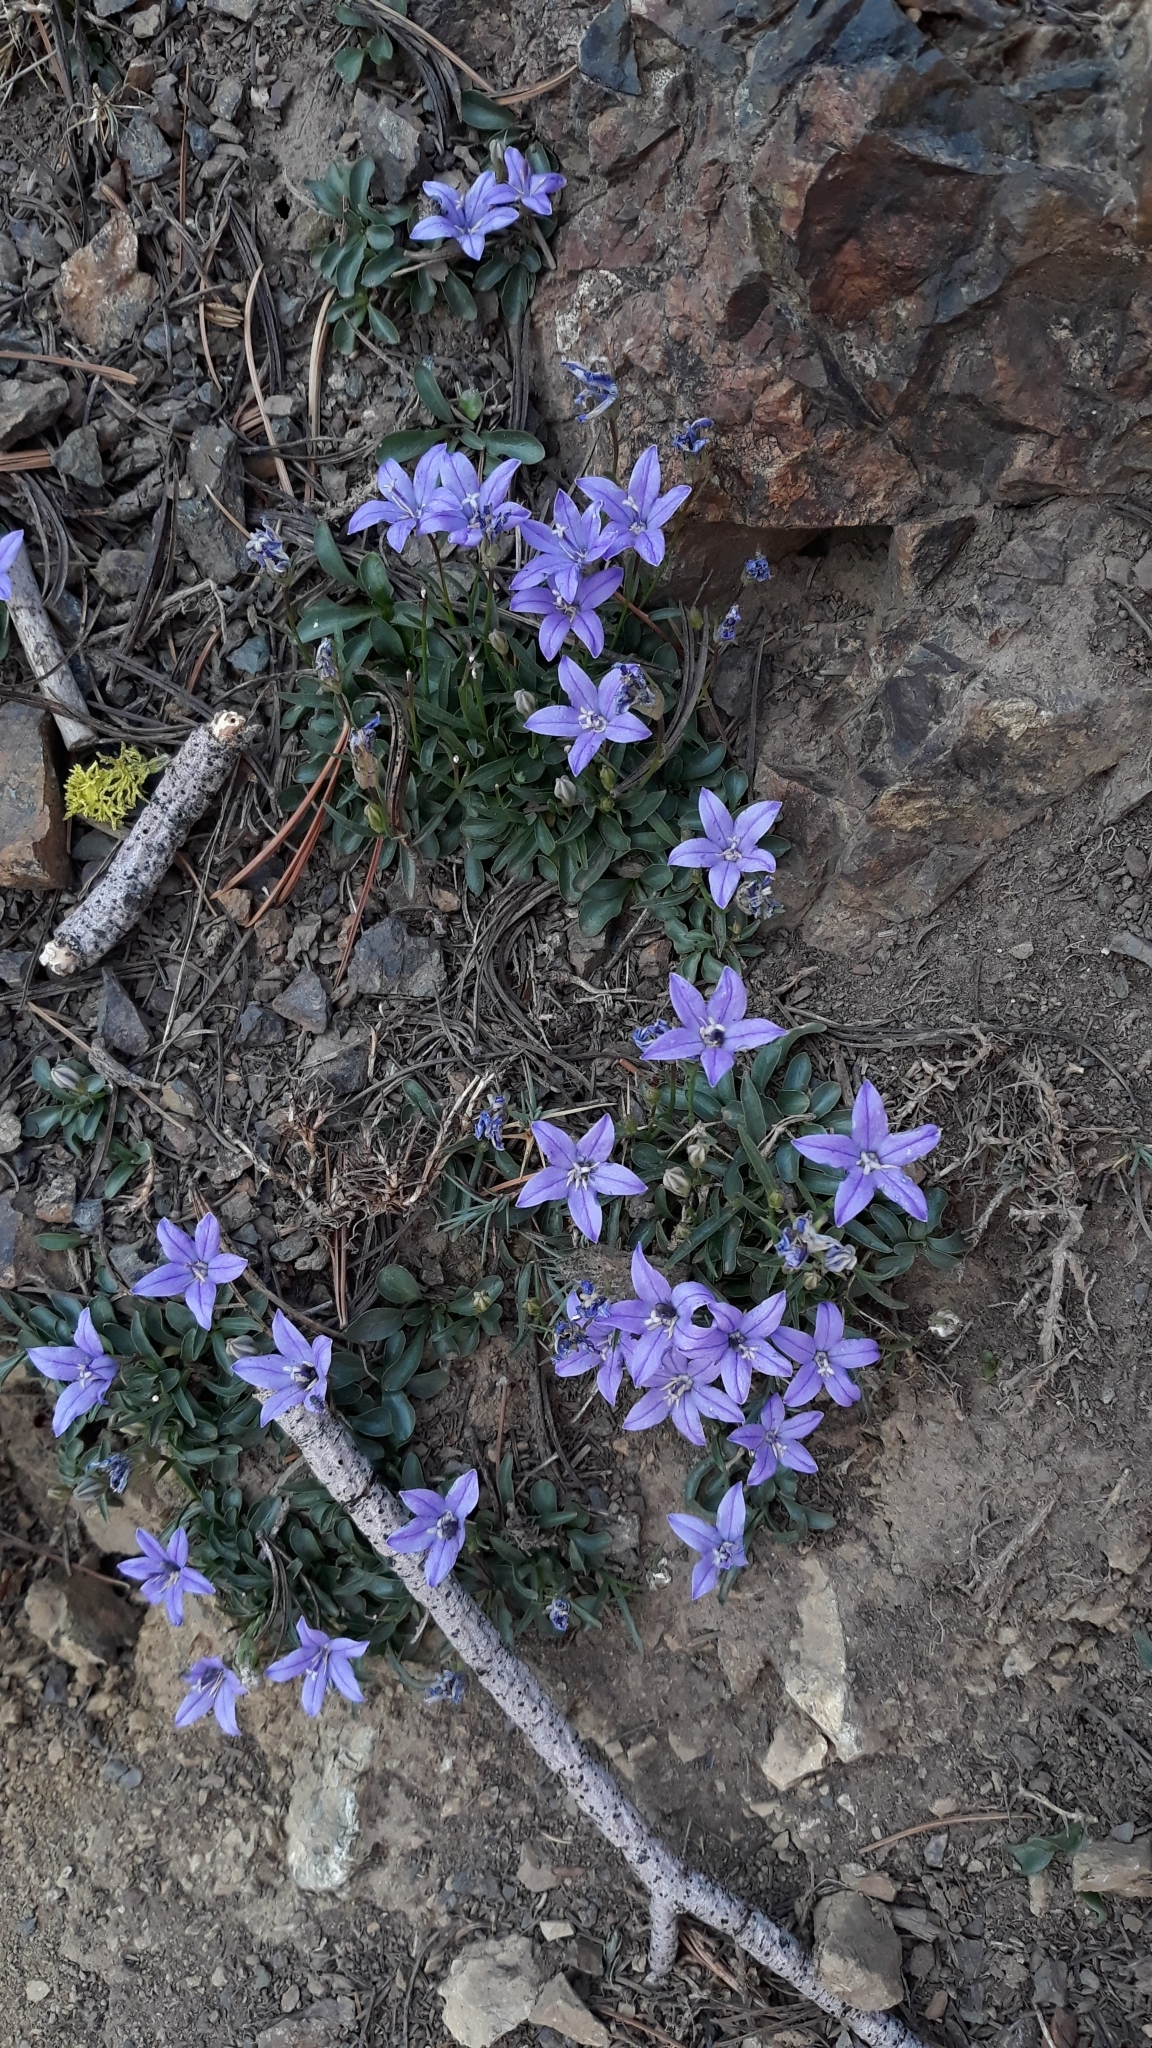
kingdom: Plantae
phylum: Tracheophyta
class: Magnoliopsida
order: Asterales
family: Campanulaceae
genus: Campanula
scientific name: Campanula scabrella
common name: Downy alpine bellflower
